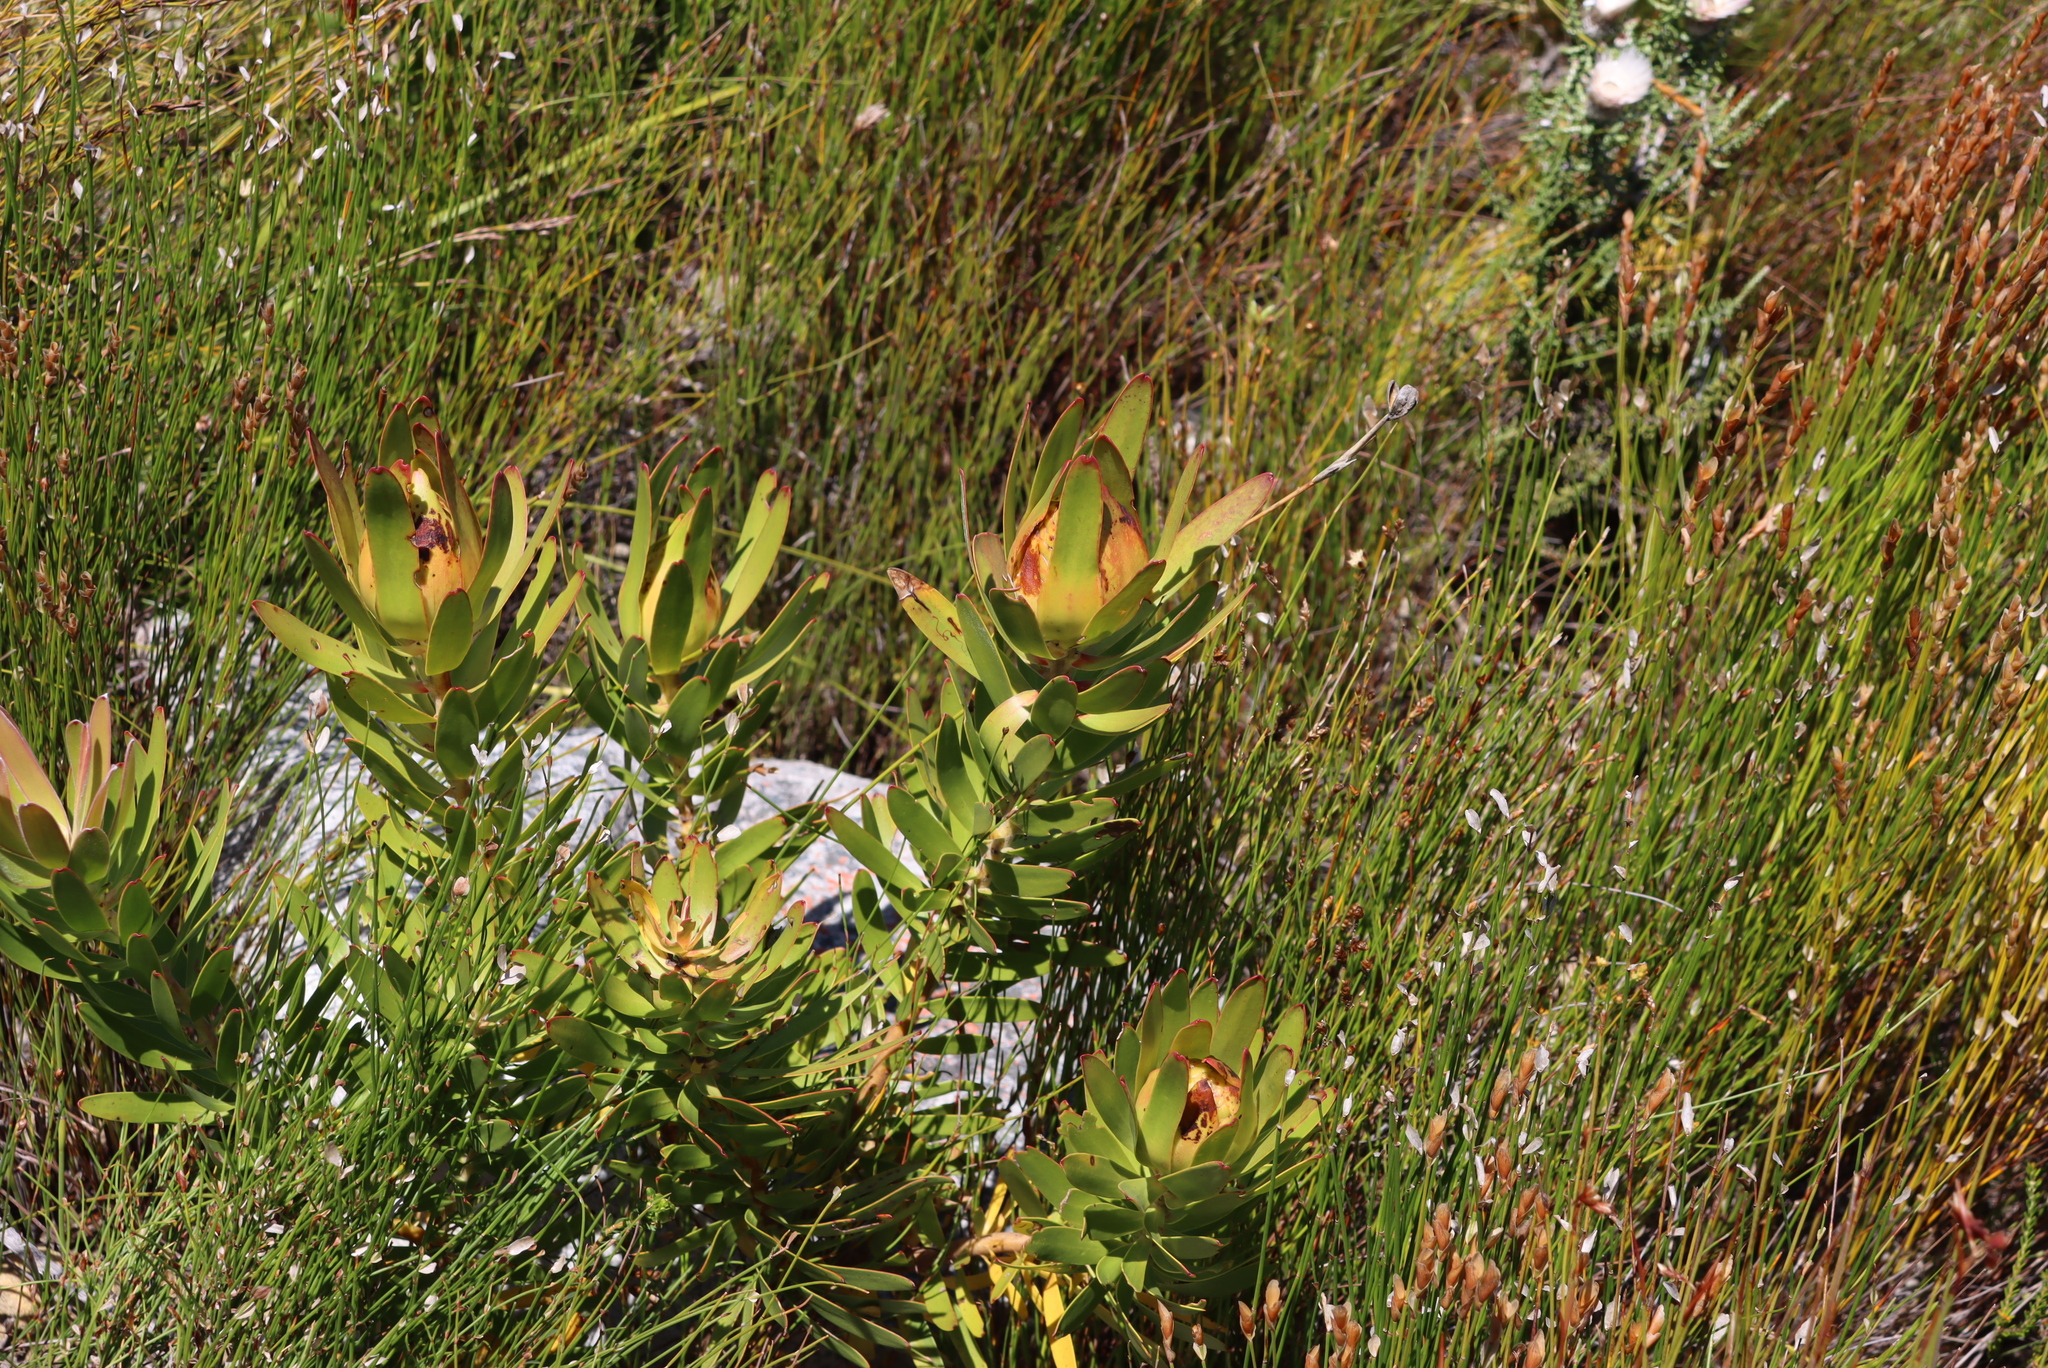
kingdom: Plantae
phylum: Tracheophyta
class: Magnoliopsida
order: Proteales
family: Proteaceae
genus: Leucadendron
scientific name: Leucadendron laureolum
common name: Golden sunshinebush
